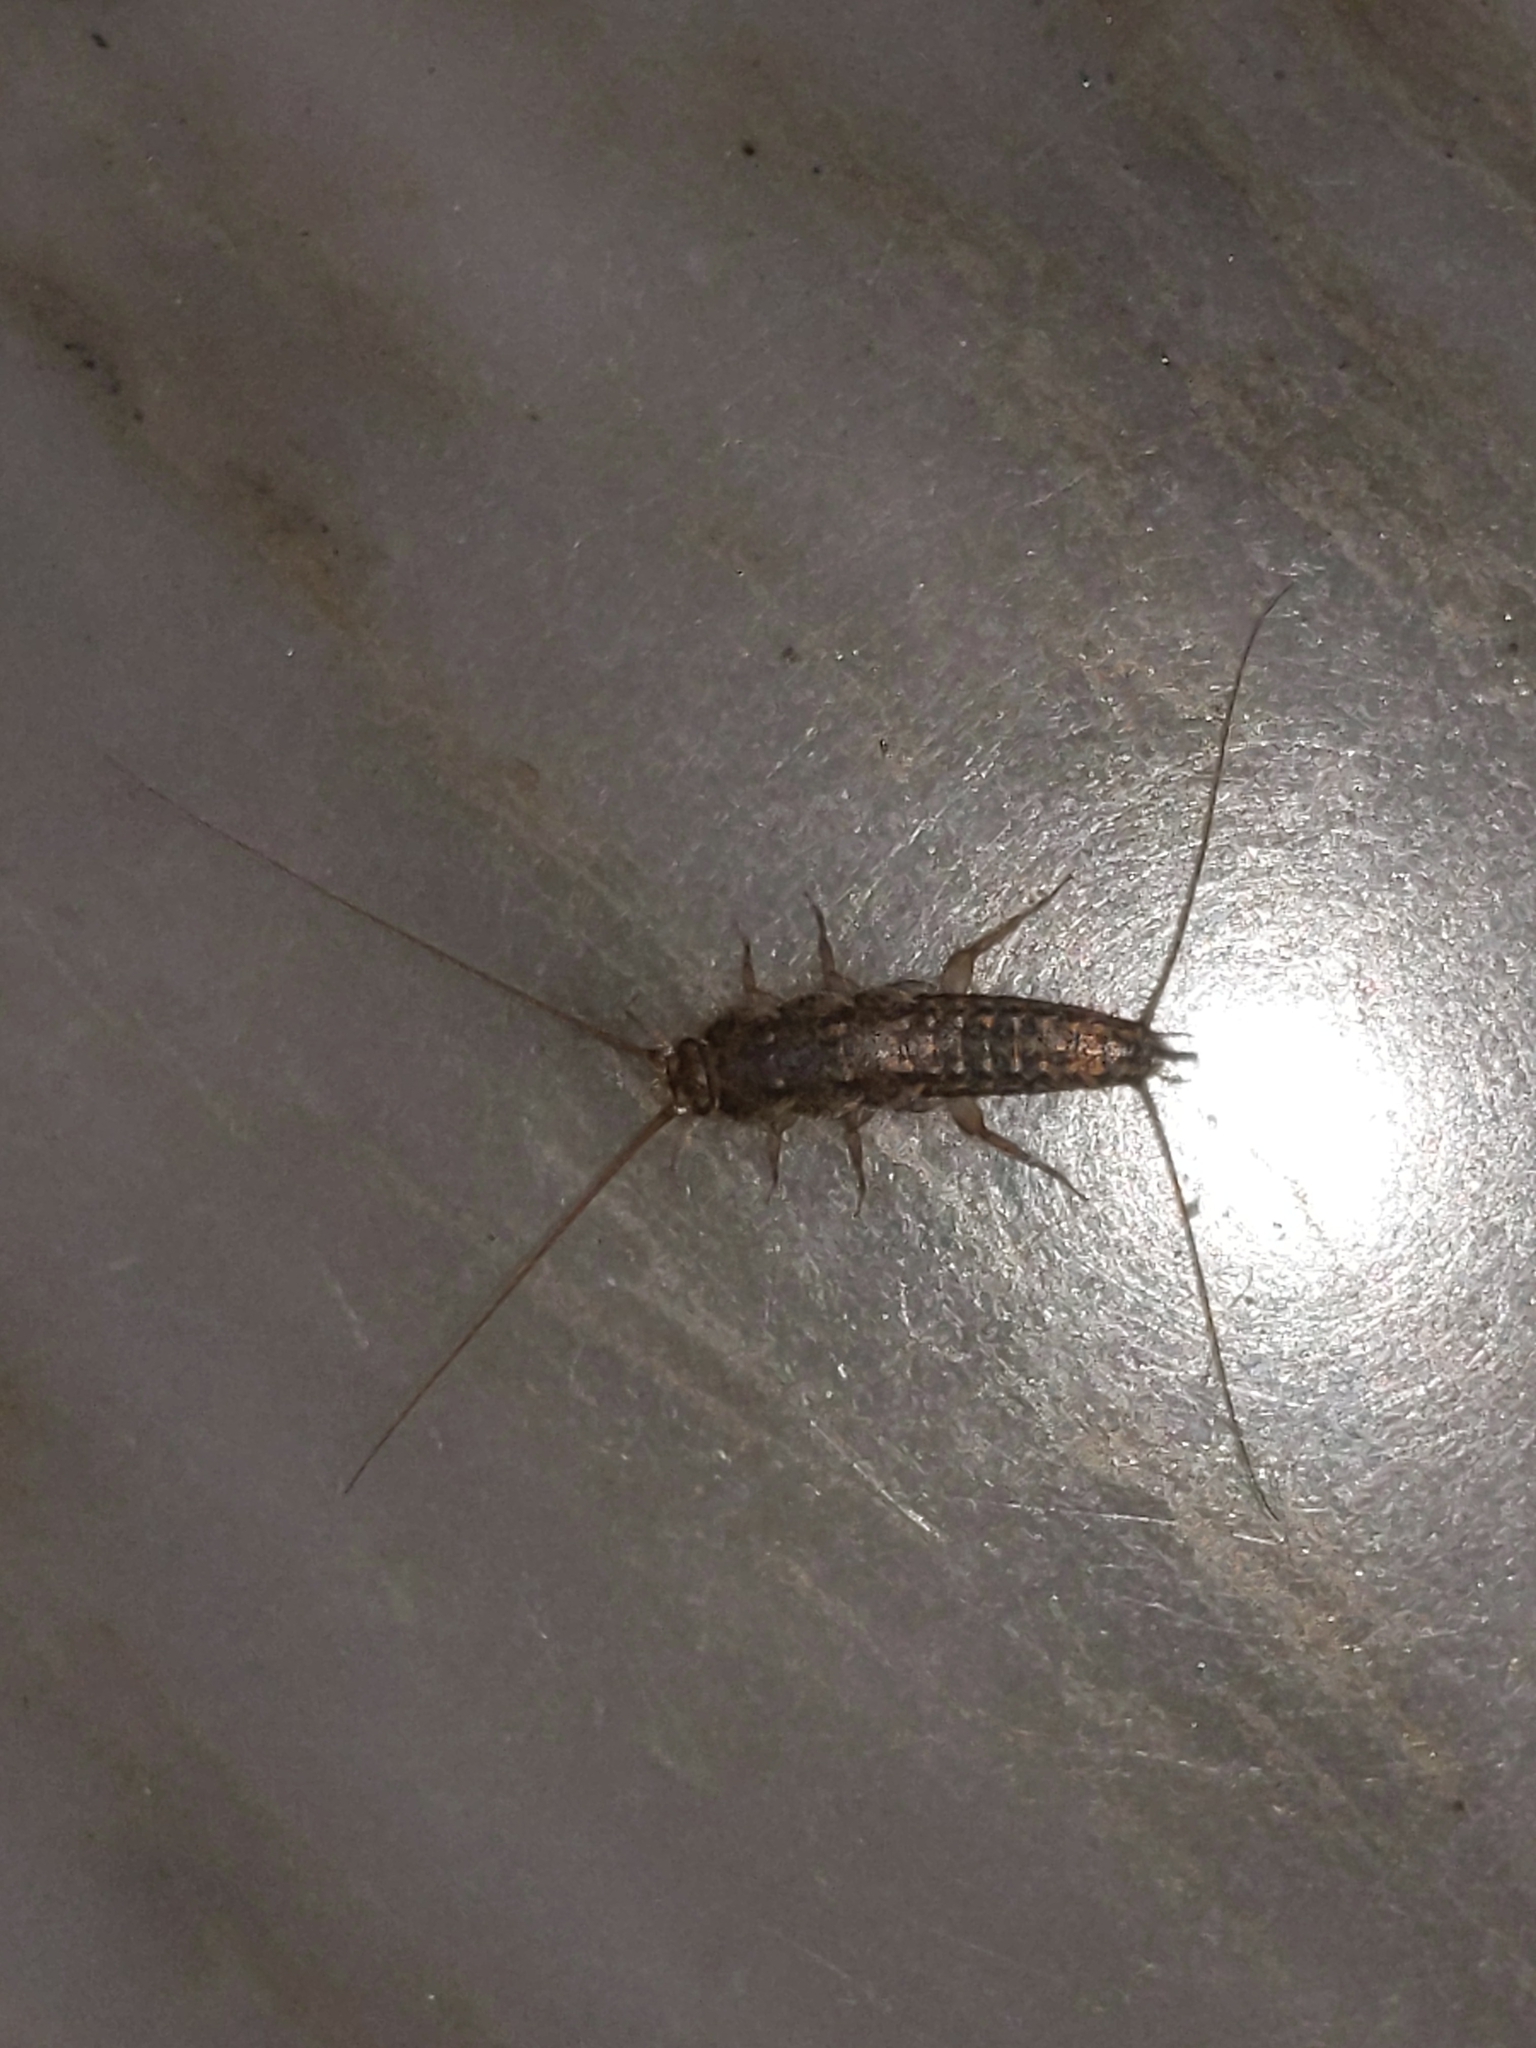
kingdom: Animalia
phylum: Arthropoda
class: Insecta
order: Zygentoma
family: Lepismatidae
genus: Ctenolepisma
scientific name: Ctenolepisma lineata
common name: Four-lined silverfish
